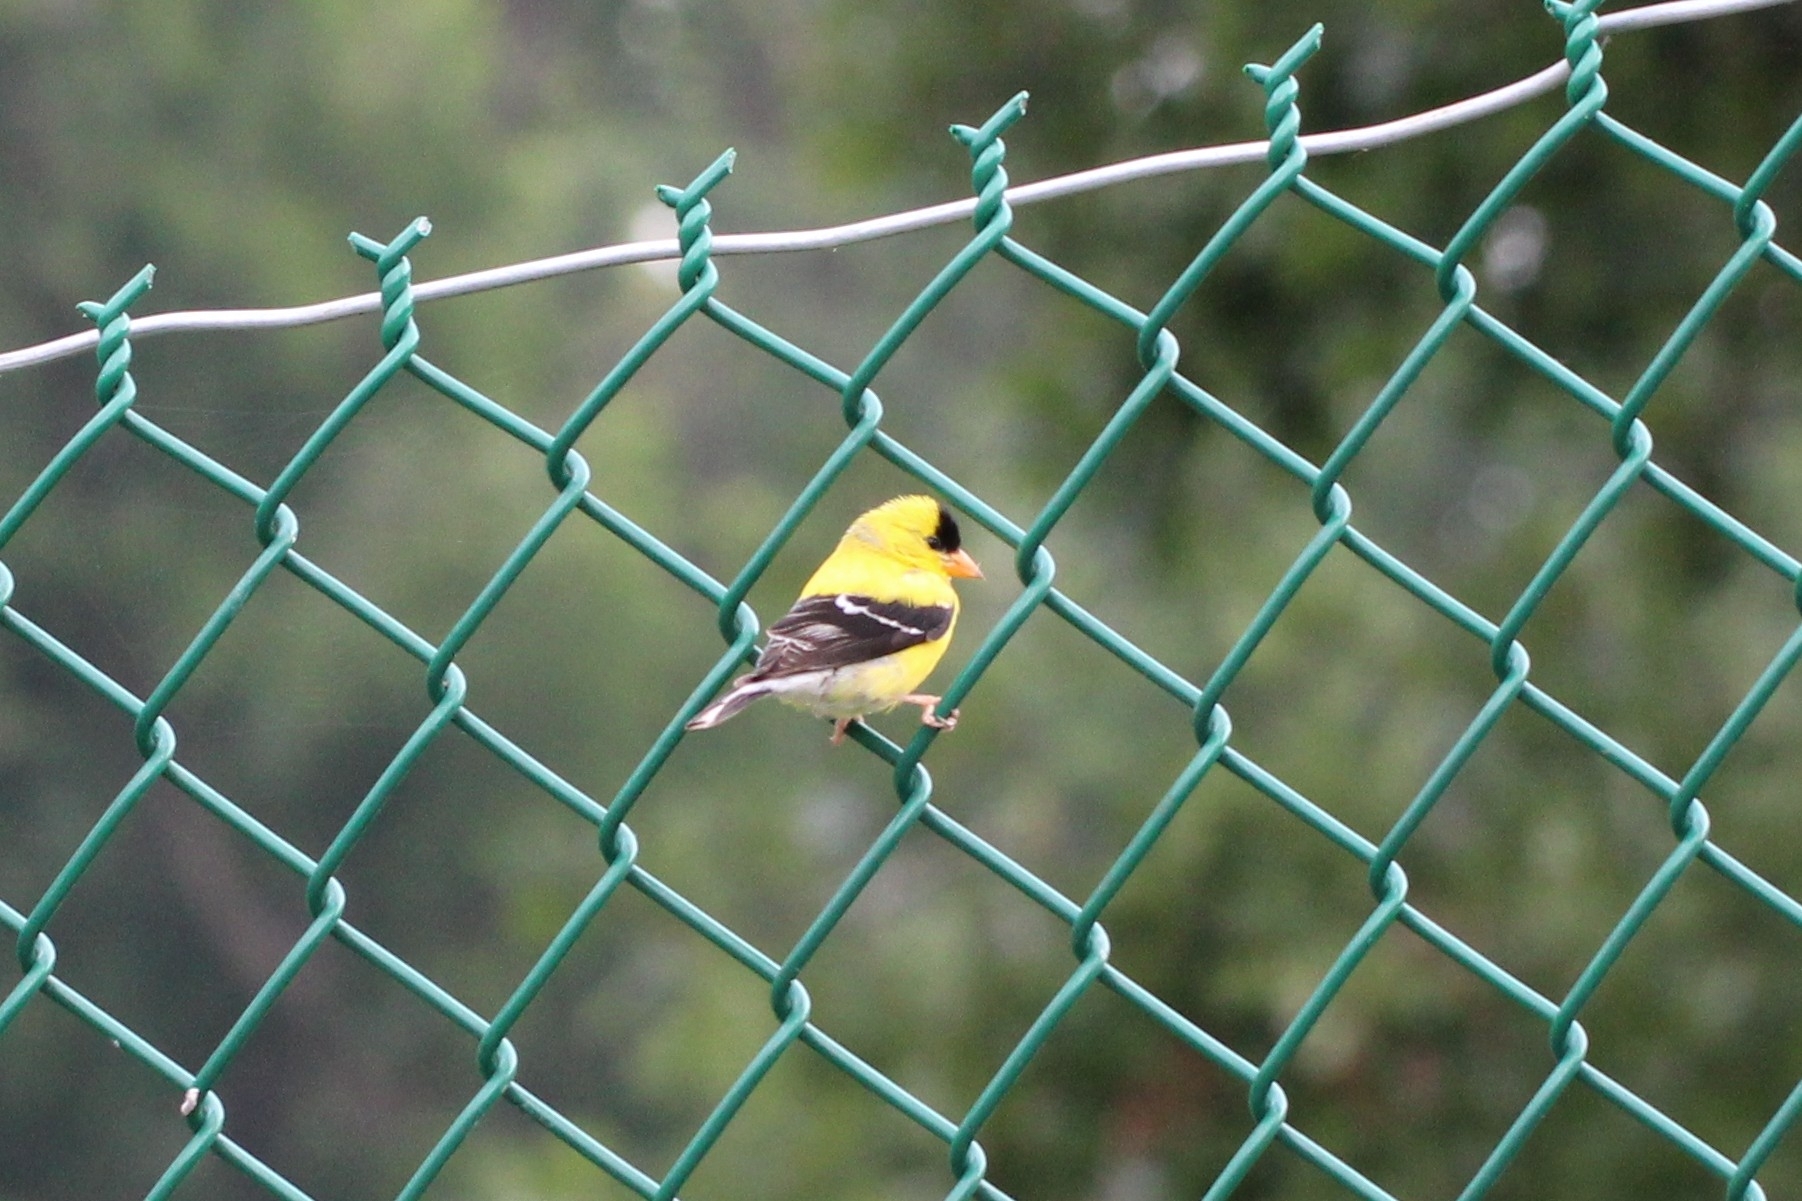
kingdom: Animalia
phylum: Chordata
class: Aves
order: Passeriformes
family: Fringillidae
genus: Spinus
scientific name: Spinus tristis
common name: American goldfinch
